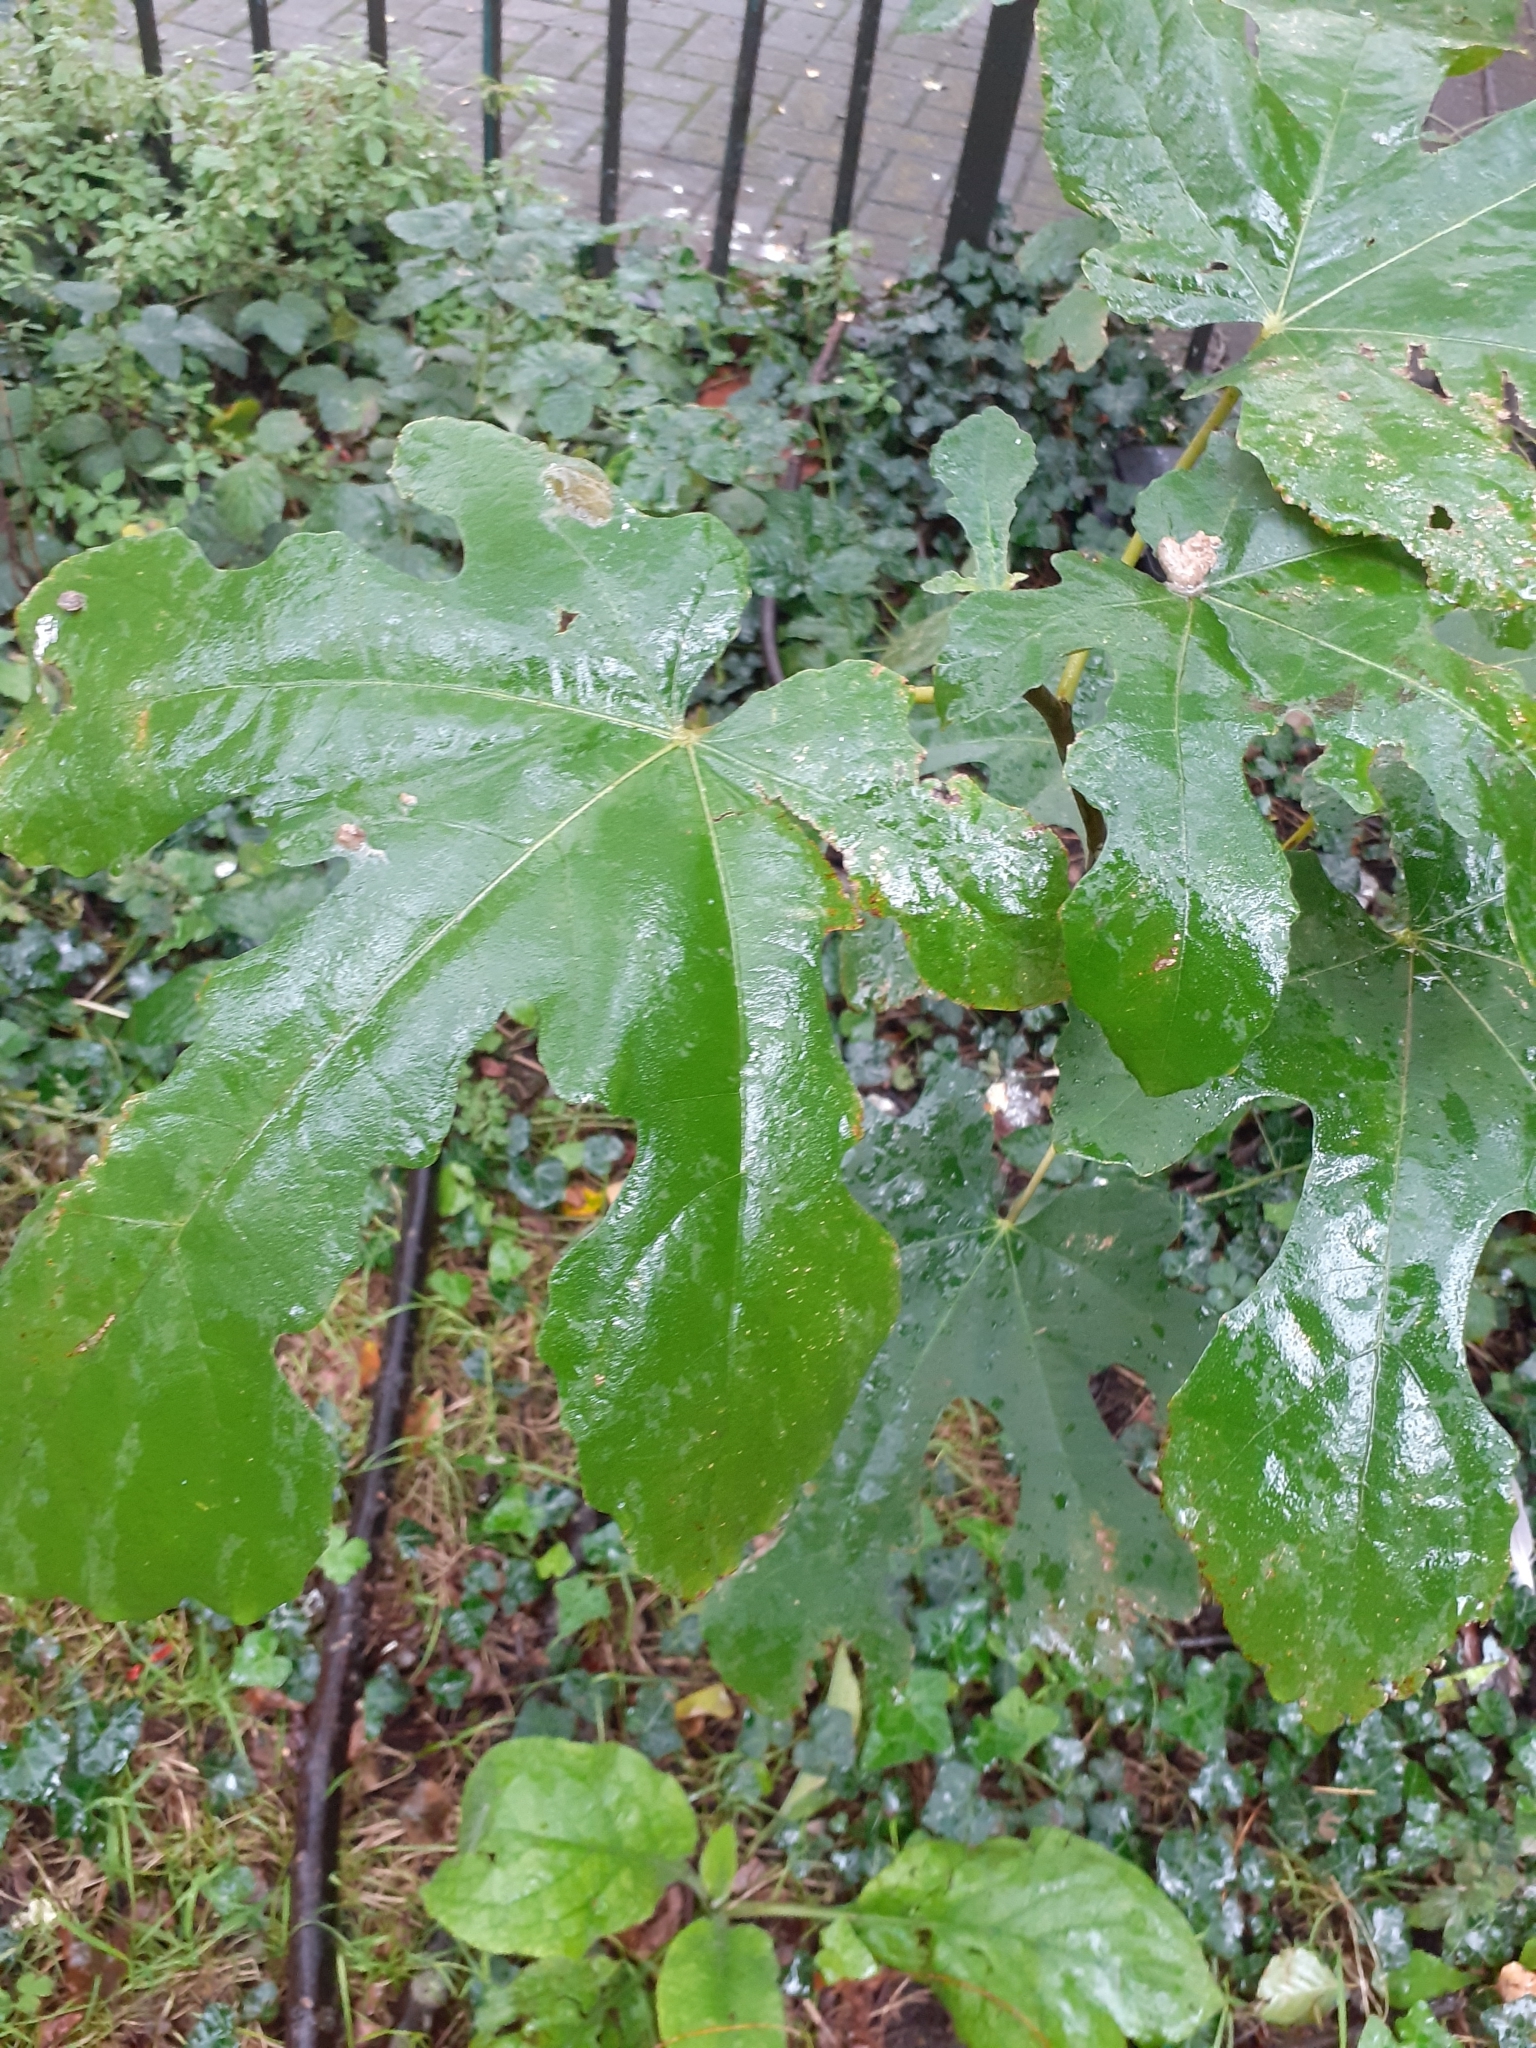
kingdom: Plantae
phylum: Tracheophyta
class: Magnoliopsida
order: Rosales
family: Moraceae
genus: Ficus
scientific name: Ficus carica
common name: Fig
